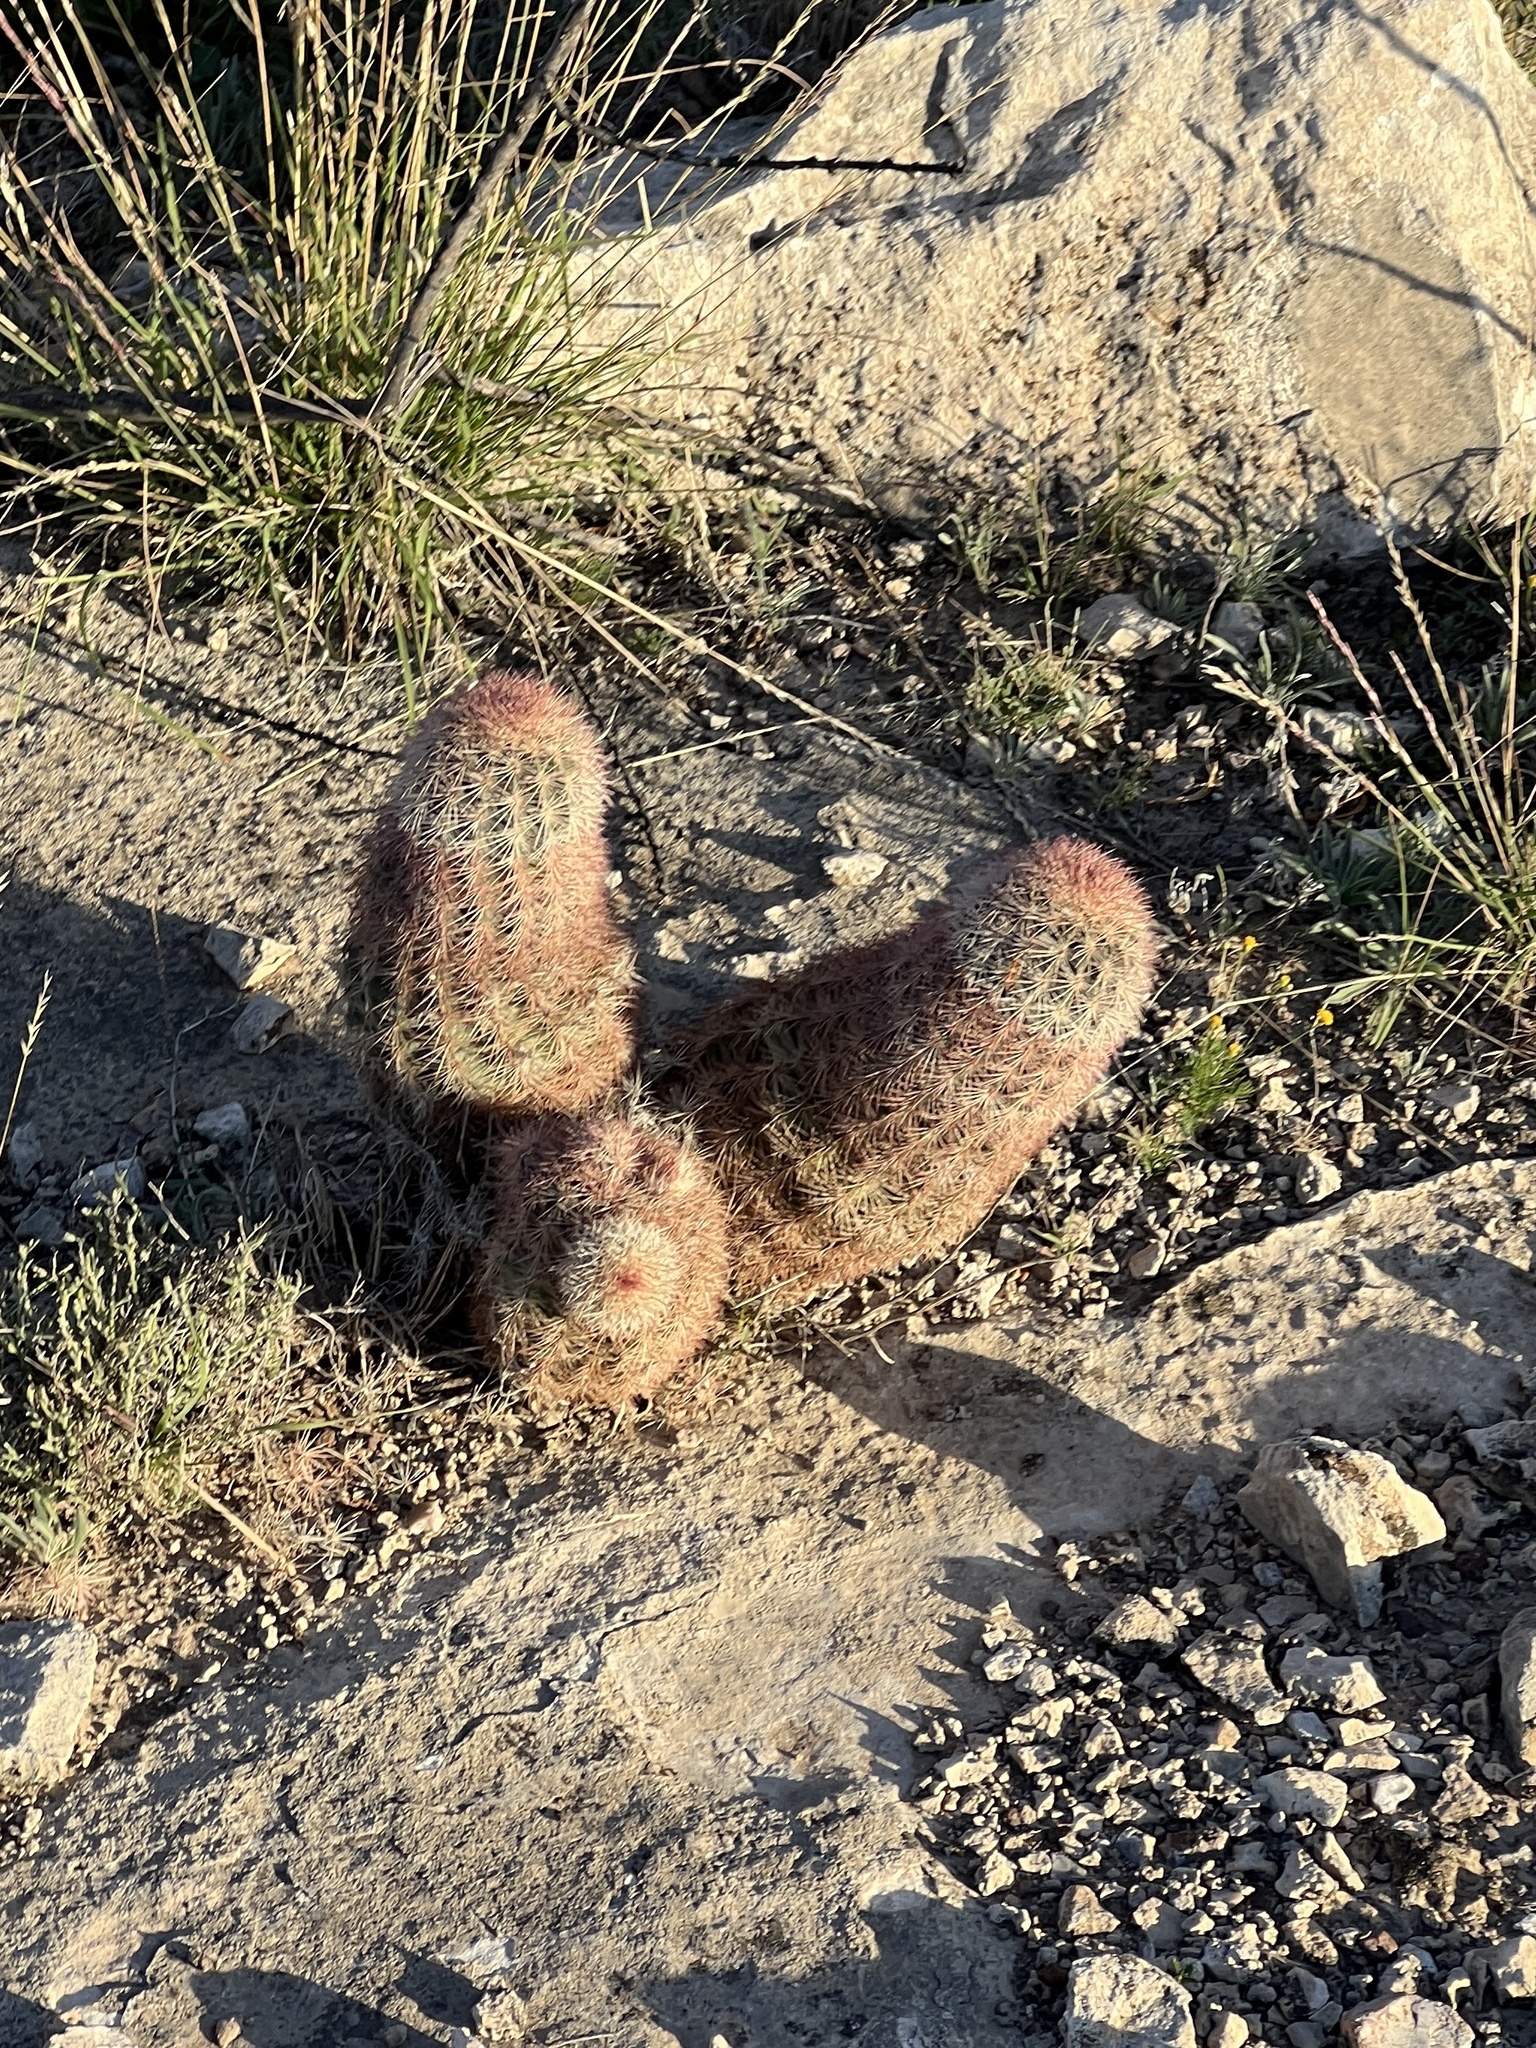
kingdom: Plantae
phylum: Tracheophyta
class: Magnoliopsida
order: Caryophyllales
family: Cactaceae
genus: Echinocereus
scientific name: Echinocereus dasyacanthus
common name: Spiny hedgehog cactus
